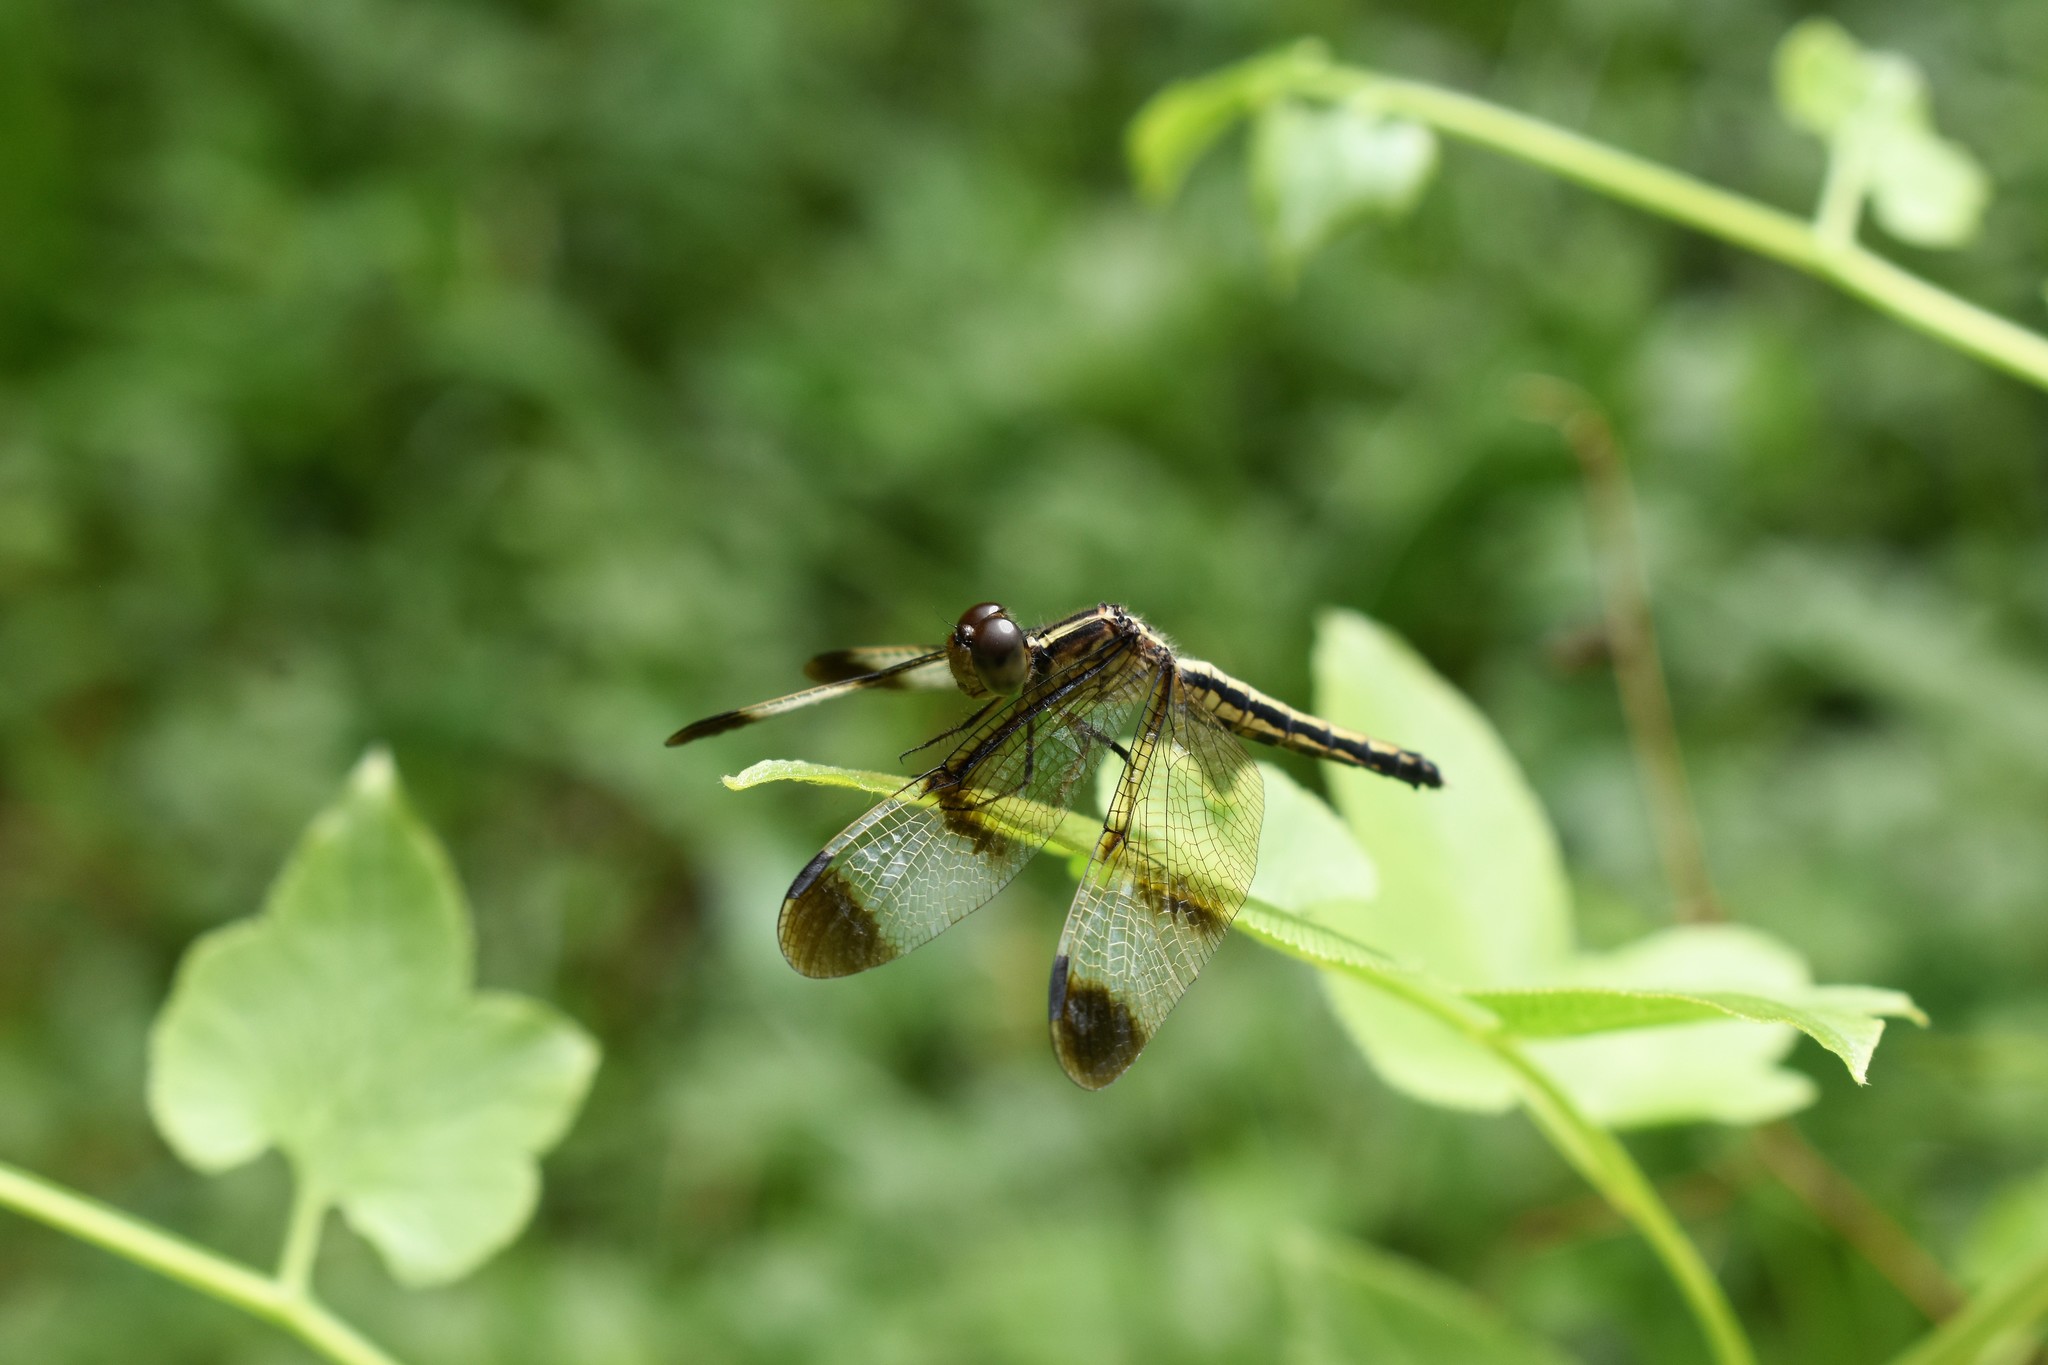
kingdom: Animalia
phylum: Arthropoda
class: Insecta
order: Odonata
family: Libellulidae
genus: Neurothemis
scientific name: Neurothemis tullia
